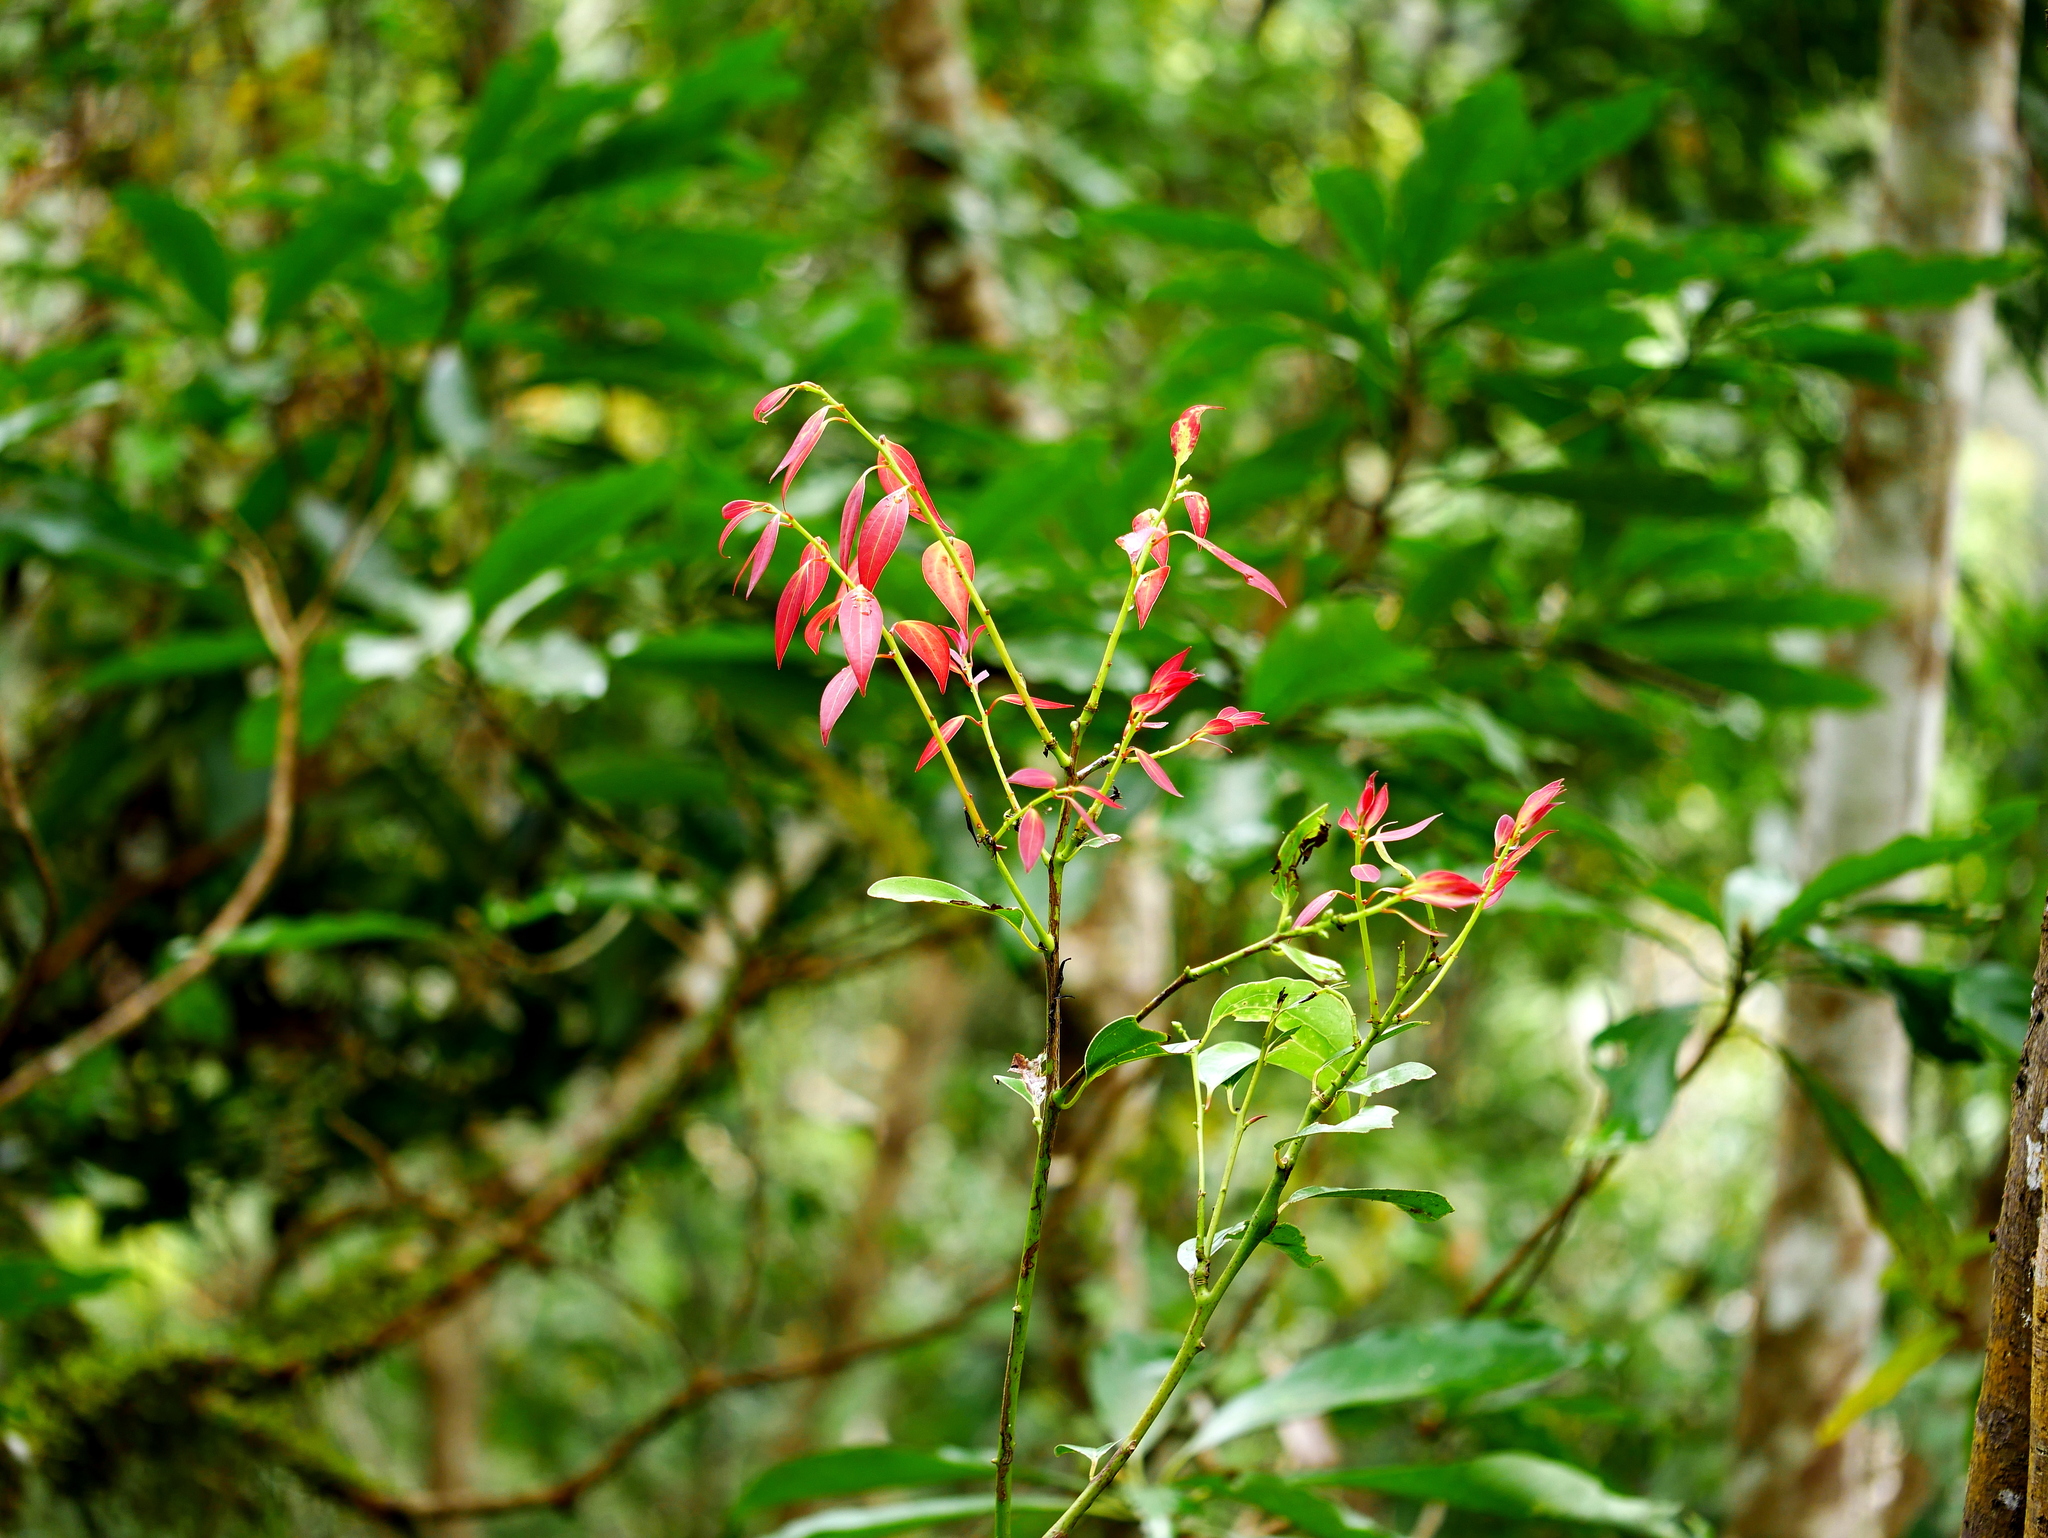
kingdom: Plantae
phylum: Tracheophyta
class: Magnoliopsida
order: Laurales
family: Lauraceae
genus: Cinnamomum
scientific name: Cinnamomum chekiangense
